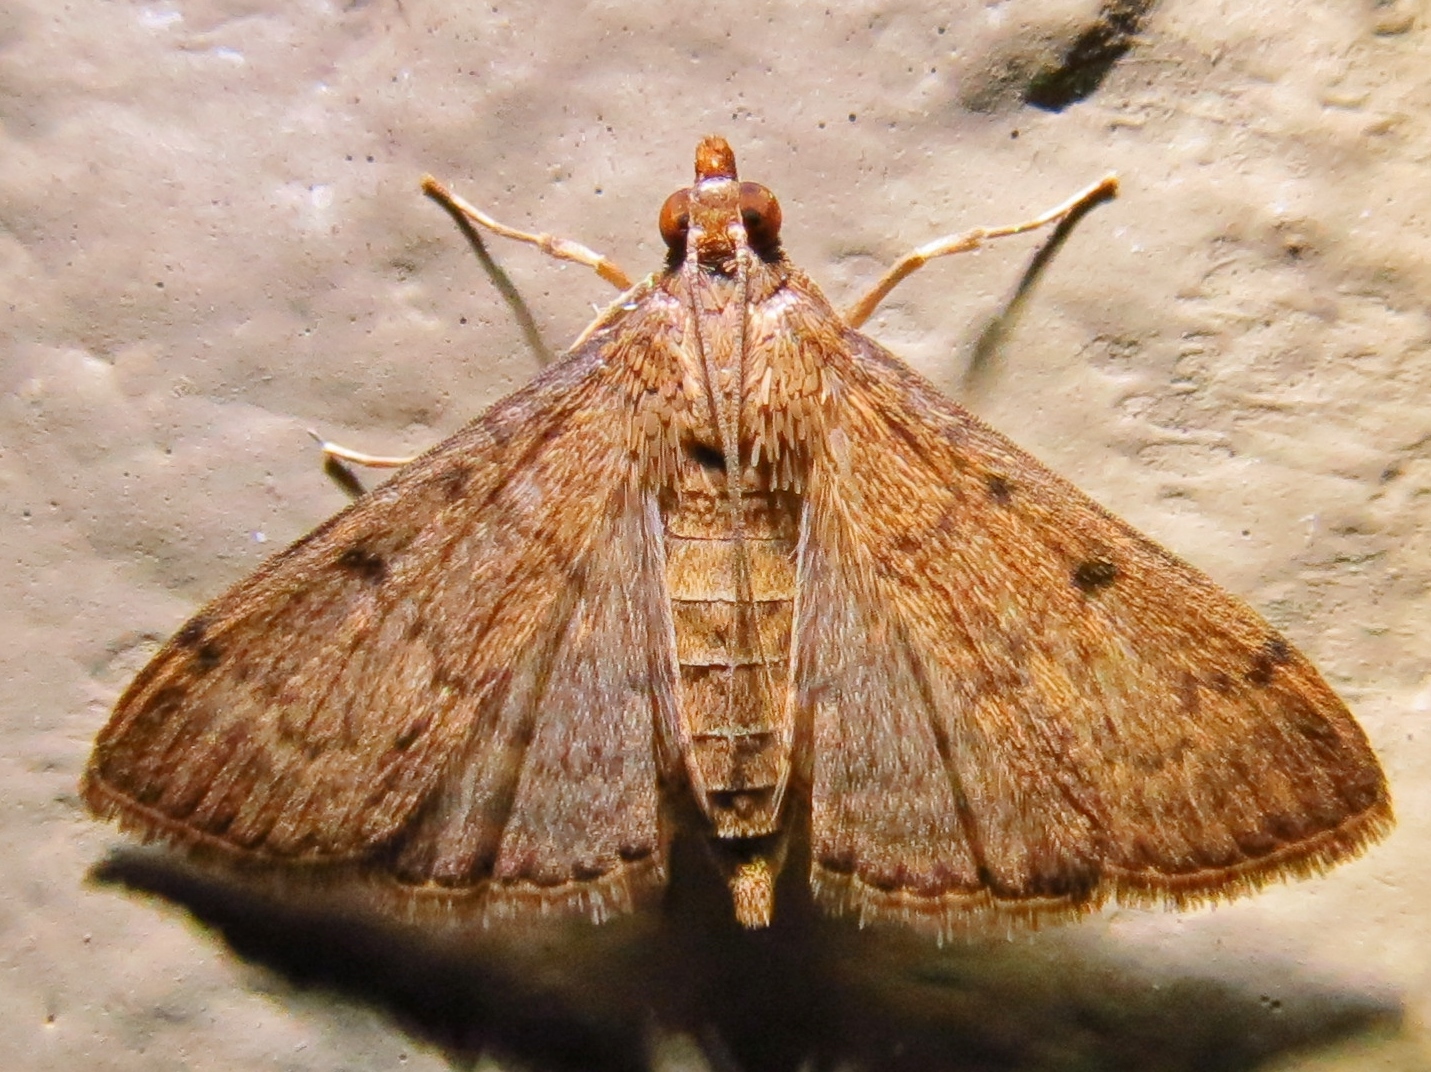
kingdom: Animalia
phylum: Arthropoda
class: Insecta
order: Lepidoptera
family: Crambidae
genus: Herpetogramma
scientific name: Herpetogramma phaeopteralis
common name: Dusky herpetogramma moth
